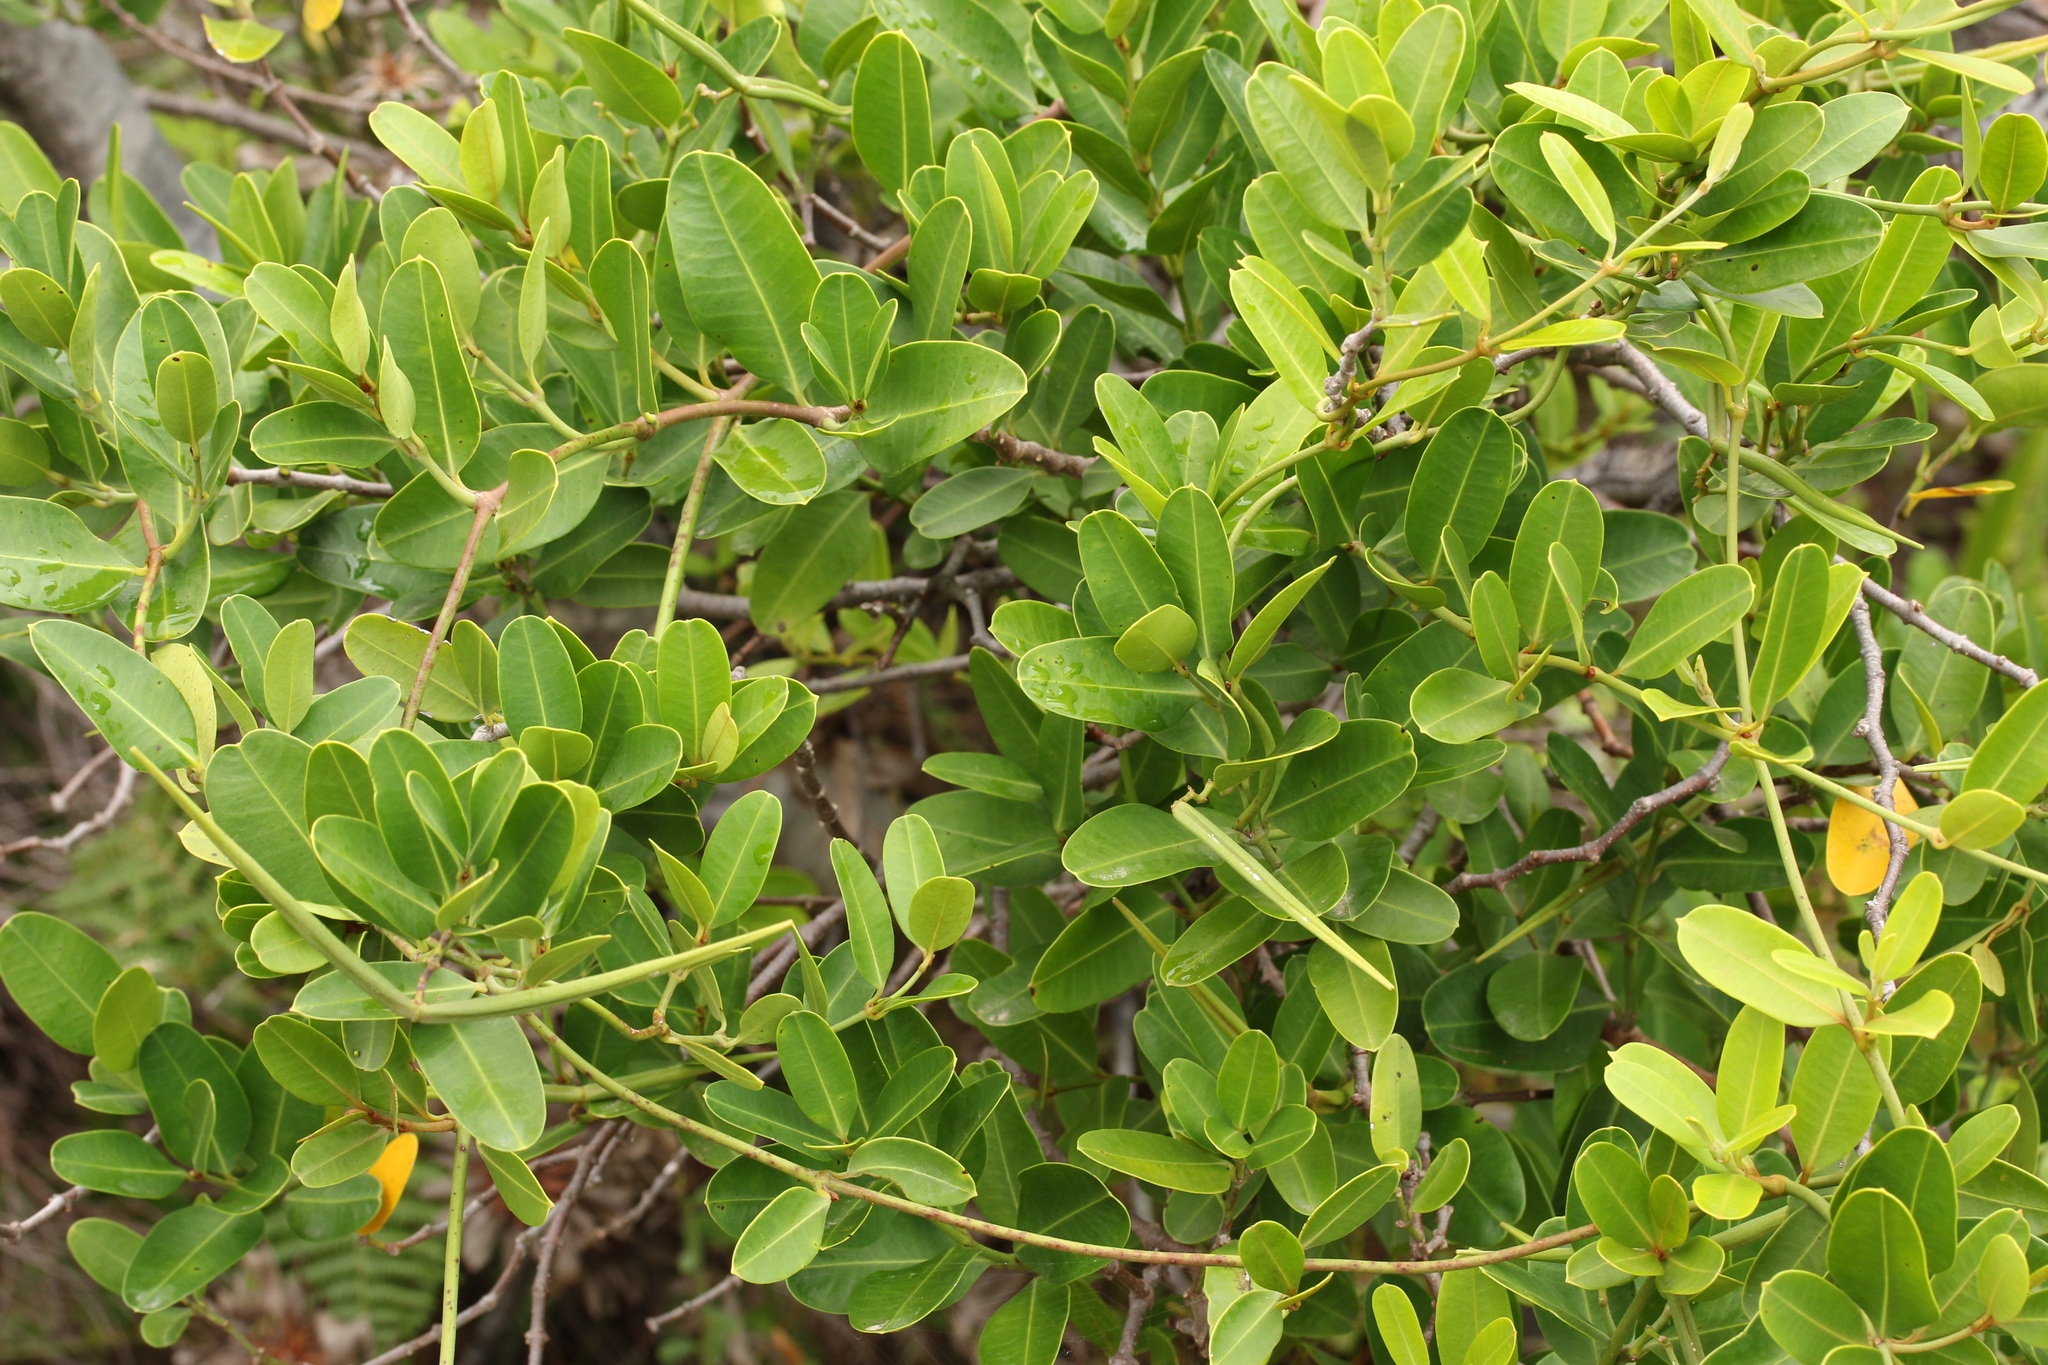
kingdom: Plantae
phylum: Tracheophyta
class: Magnoliopsida
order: Gentianales
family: Apocynaceae
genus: Secamone
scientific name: Secamone alpini
